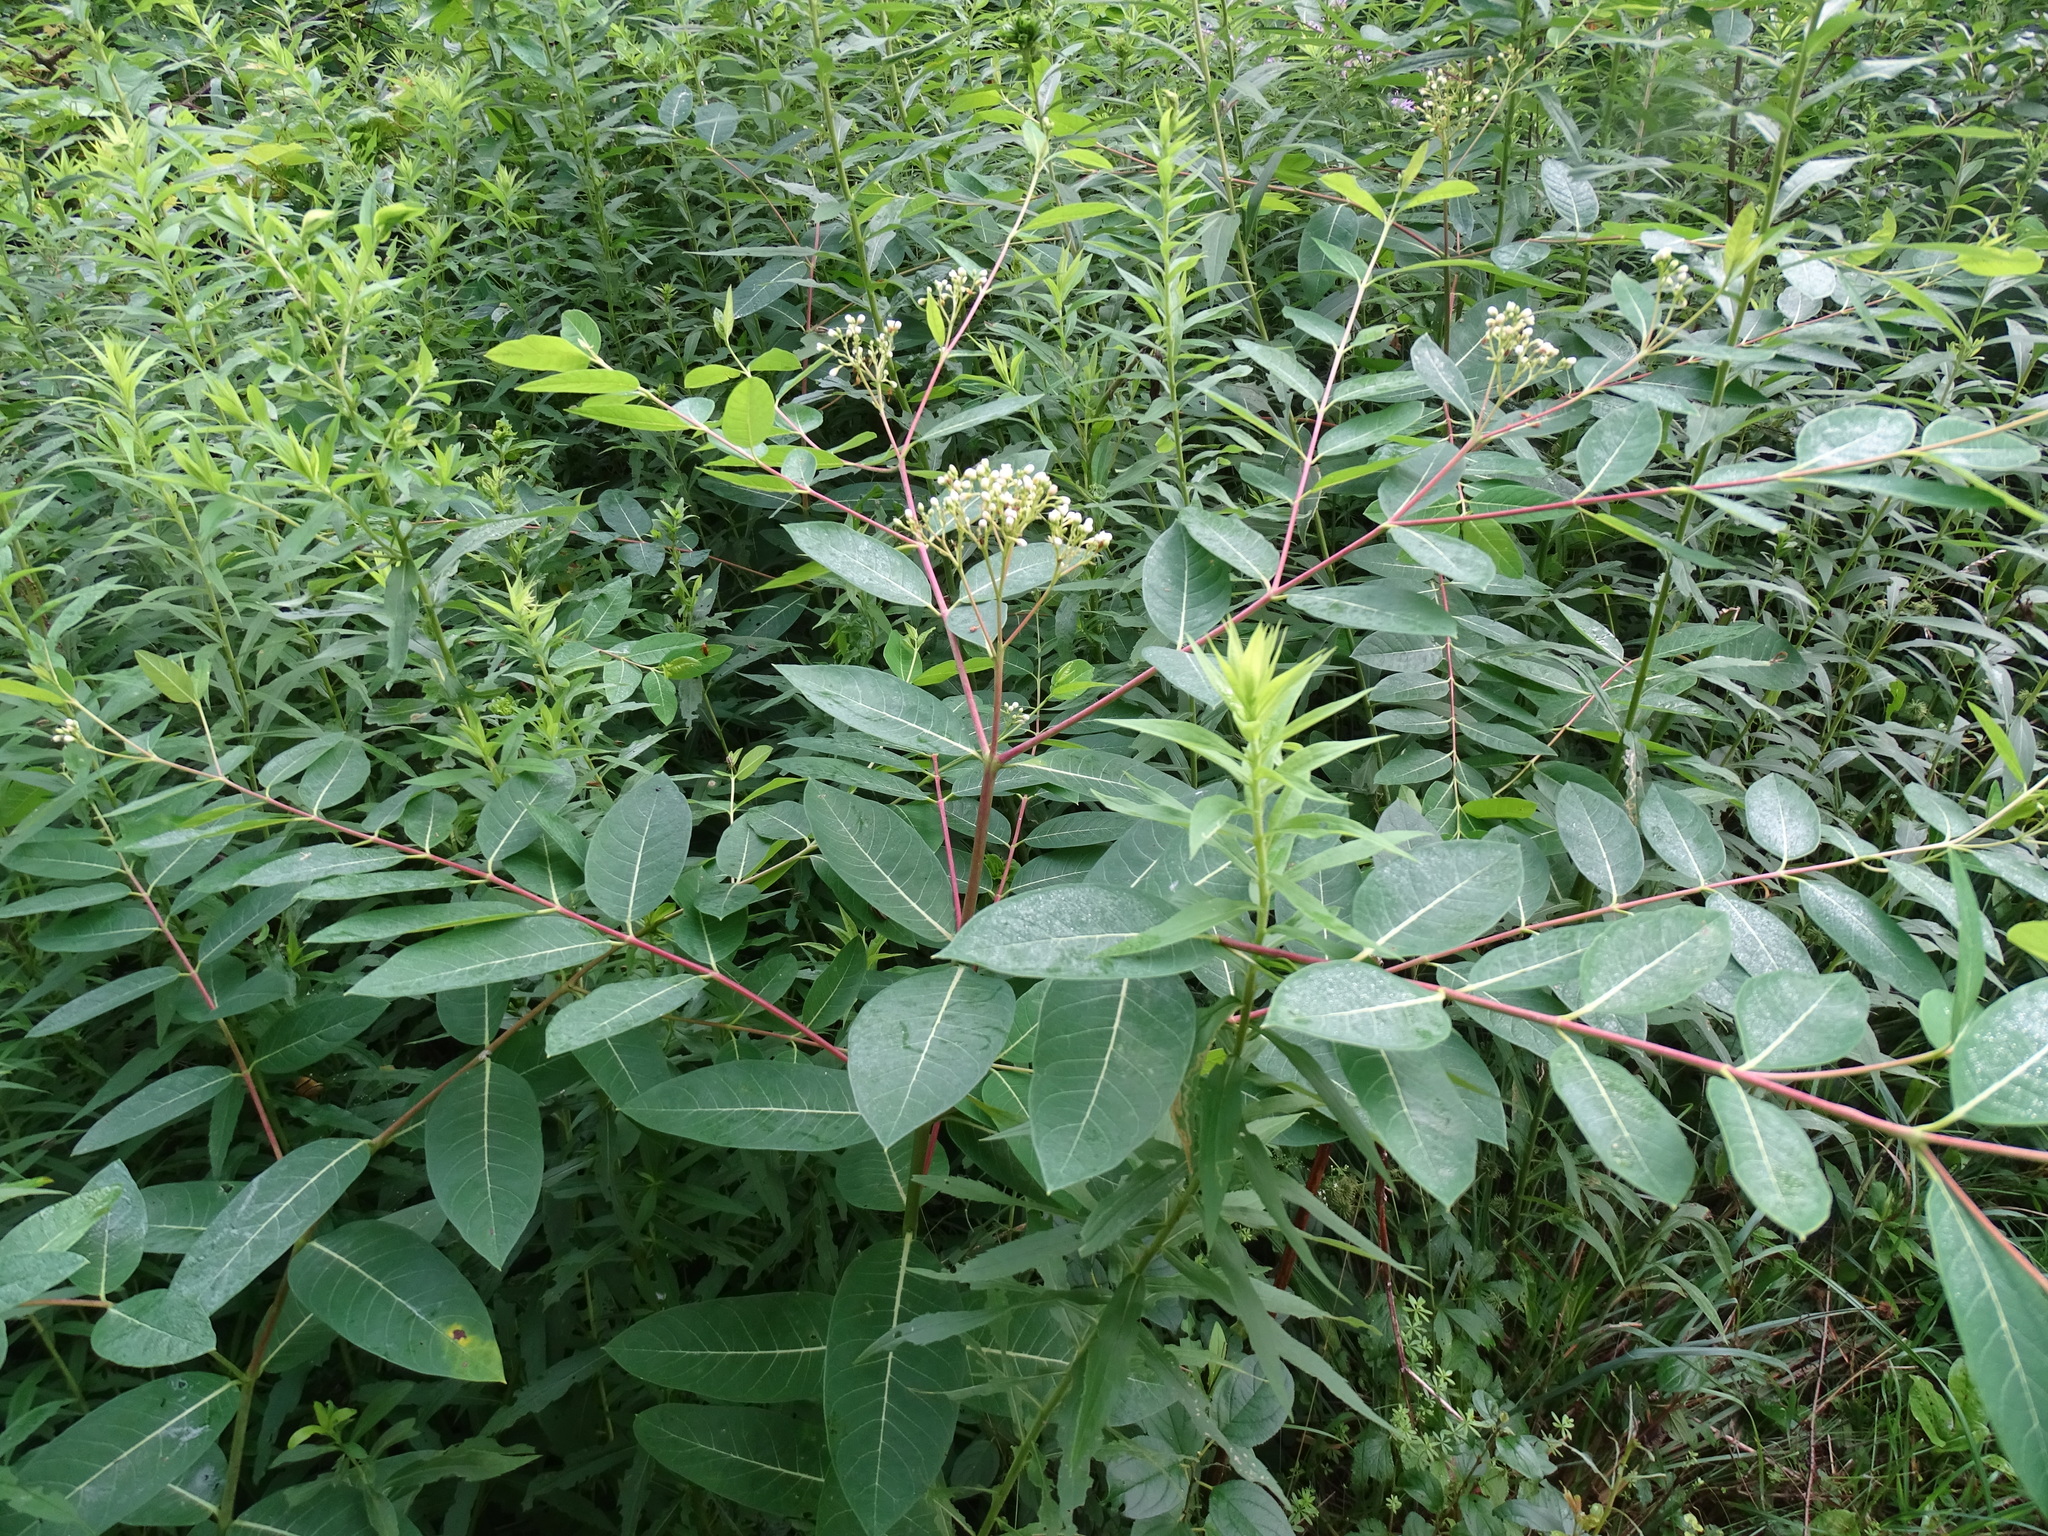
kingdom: Plantae
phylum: Tracheophyta
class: Magnoliopsida
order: Gentianales
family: Apocynaceae
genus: Apocynum
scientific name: Apocynum cannabinum
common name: Hemp dogbane
